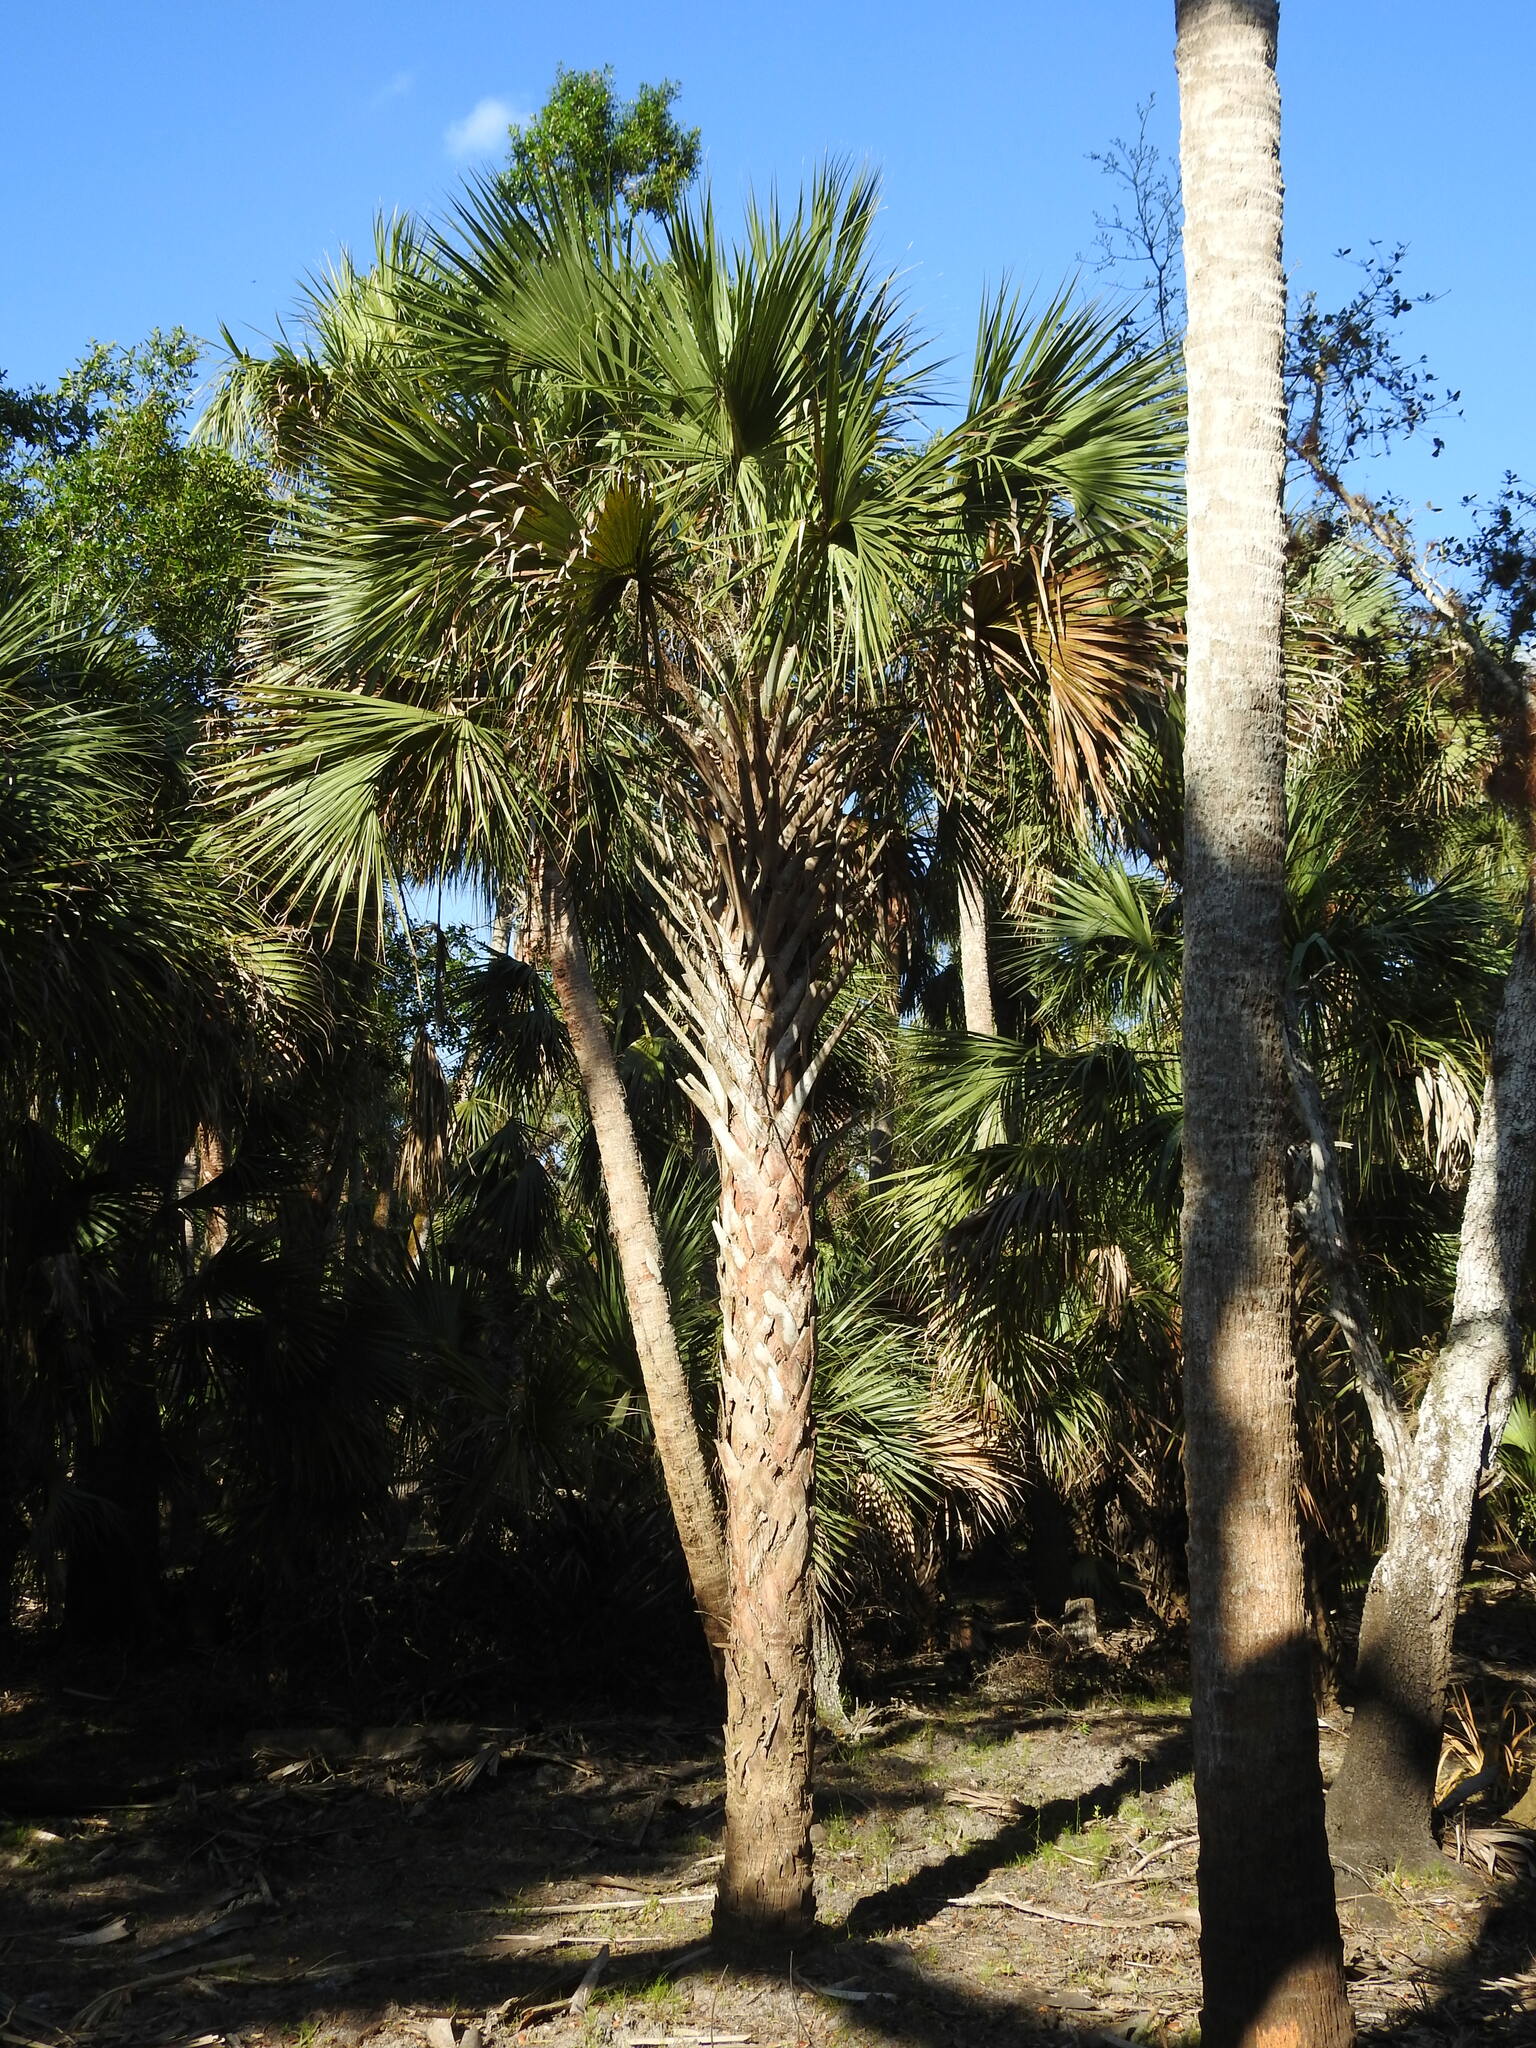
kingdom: Plantae
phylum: Tracheophyta
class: Liliopsida
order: Arecales
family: Arecaceae
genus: Sabal
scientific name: Sabal palmetto
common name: Blue palmetto
